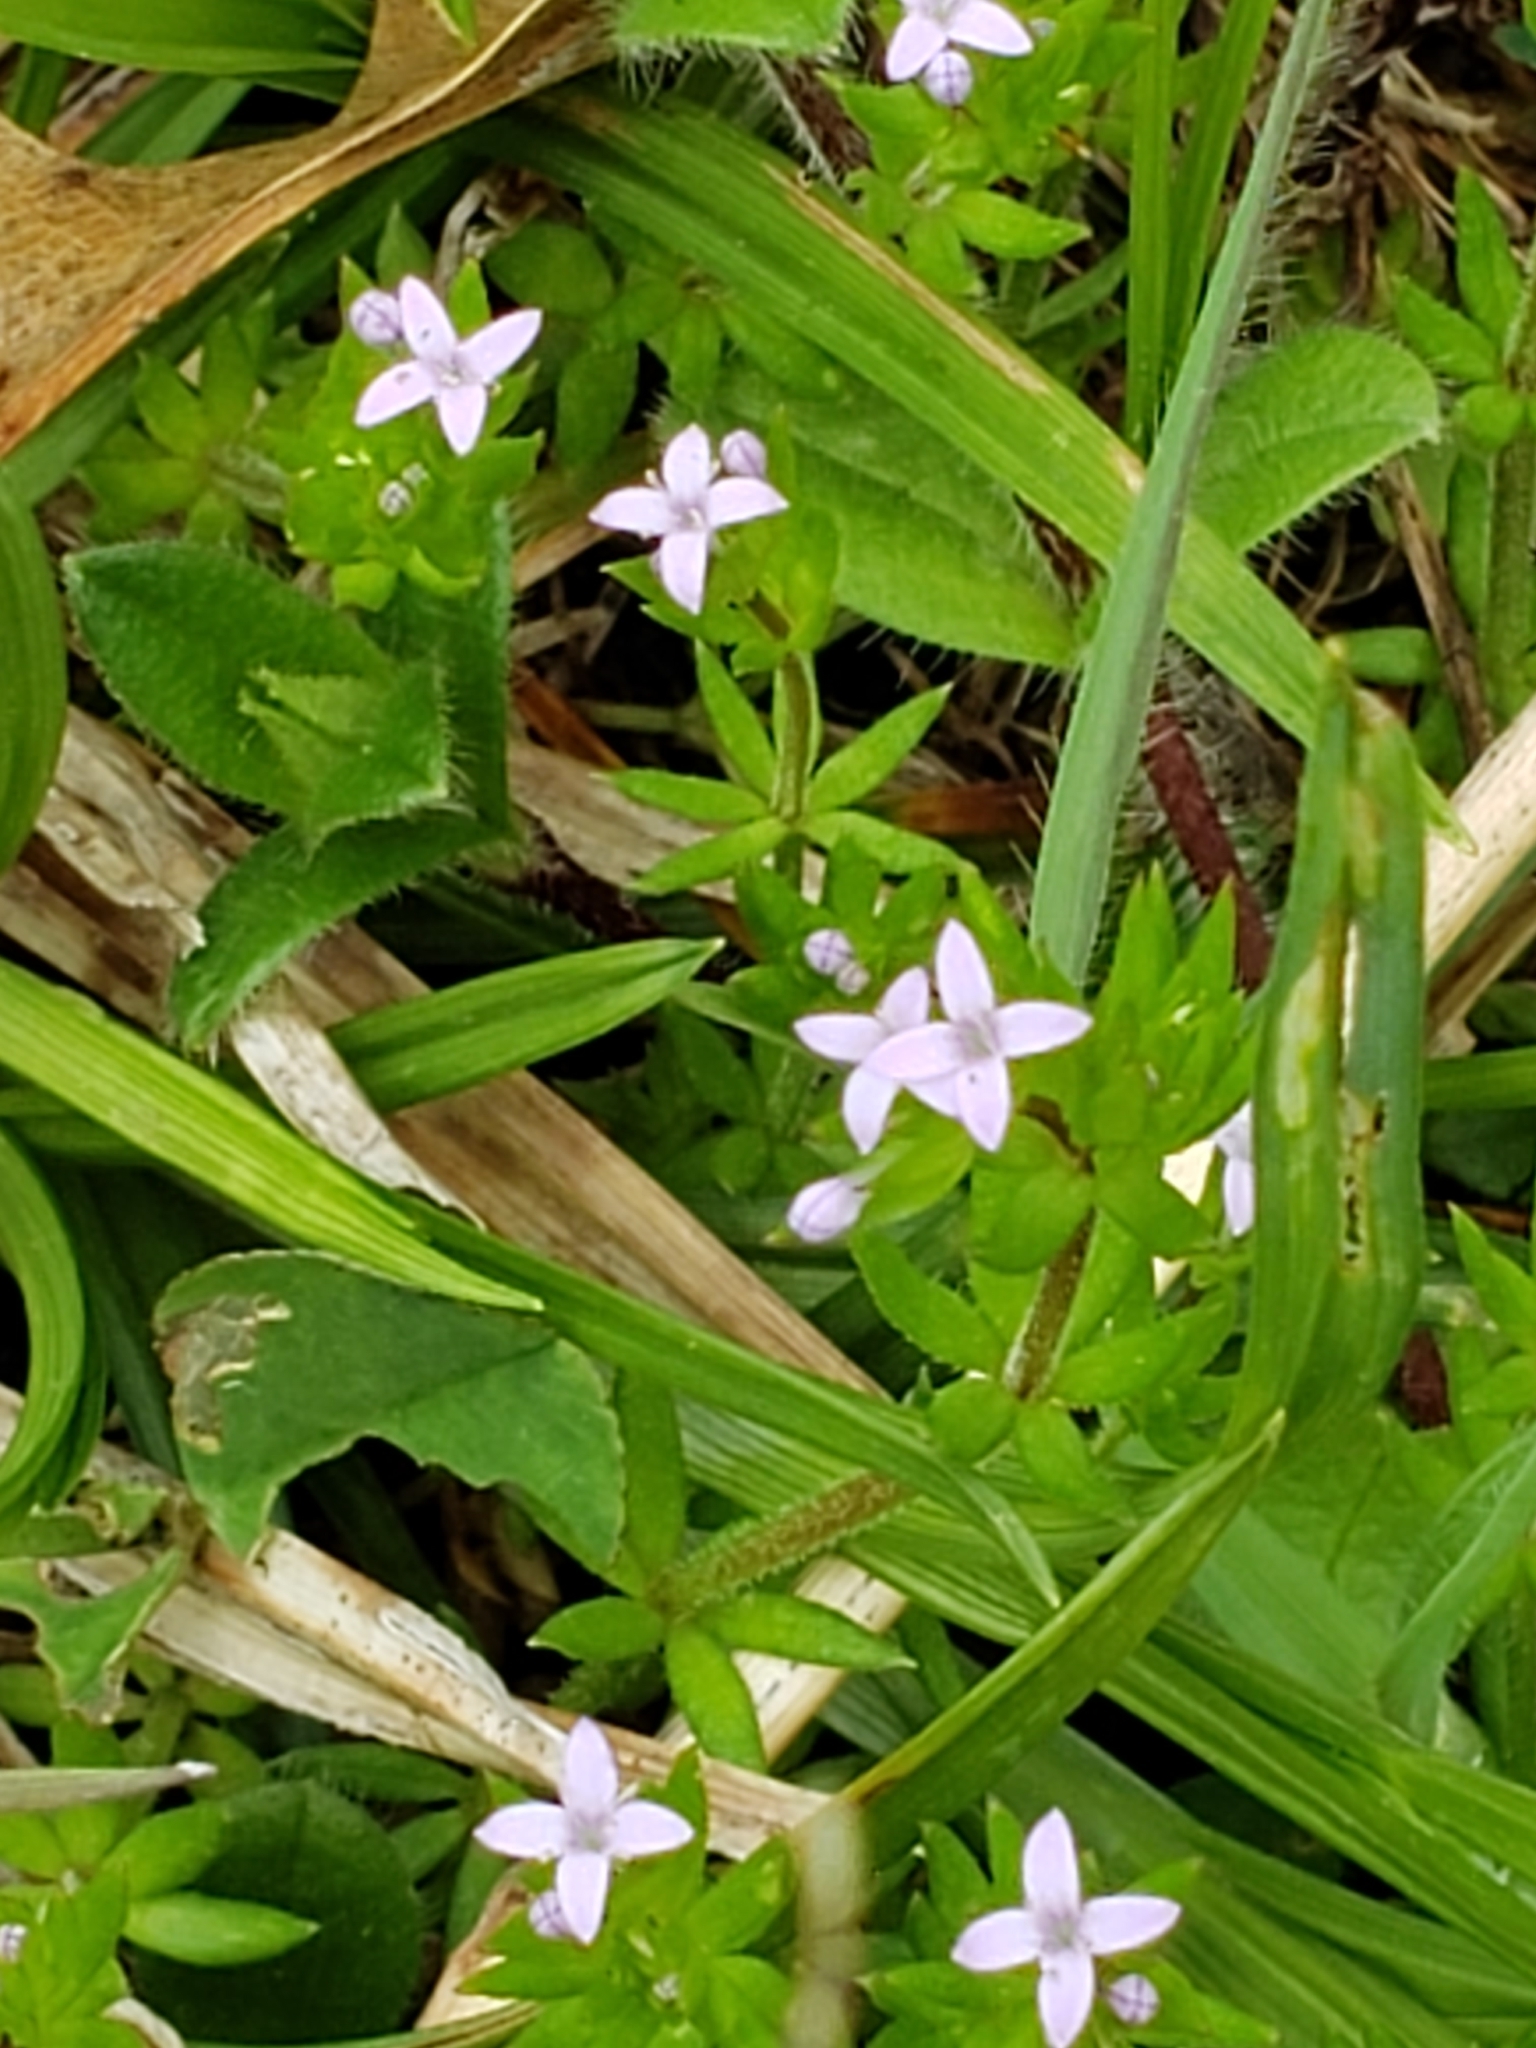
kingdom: Plantae
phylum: Tracheophyta
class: Magnoliopsida
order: Gentianales
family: Rubiaceae
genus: Sherardia
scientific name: Sherardia arvensis
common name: Field madder
